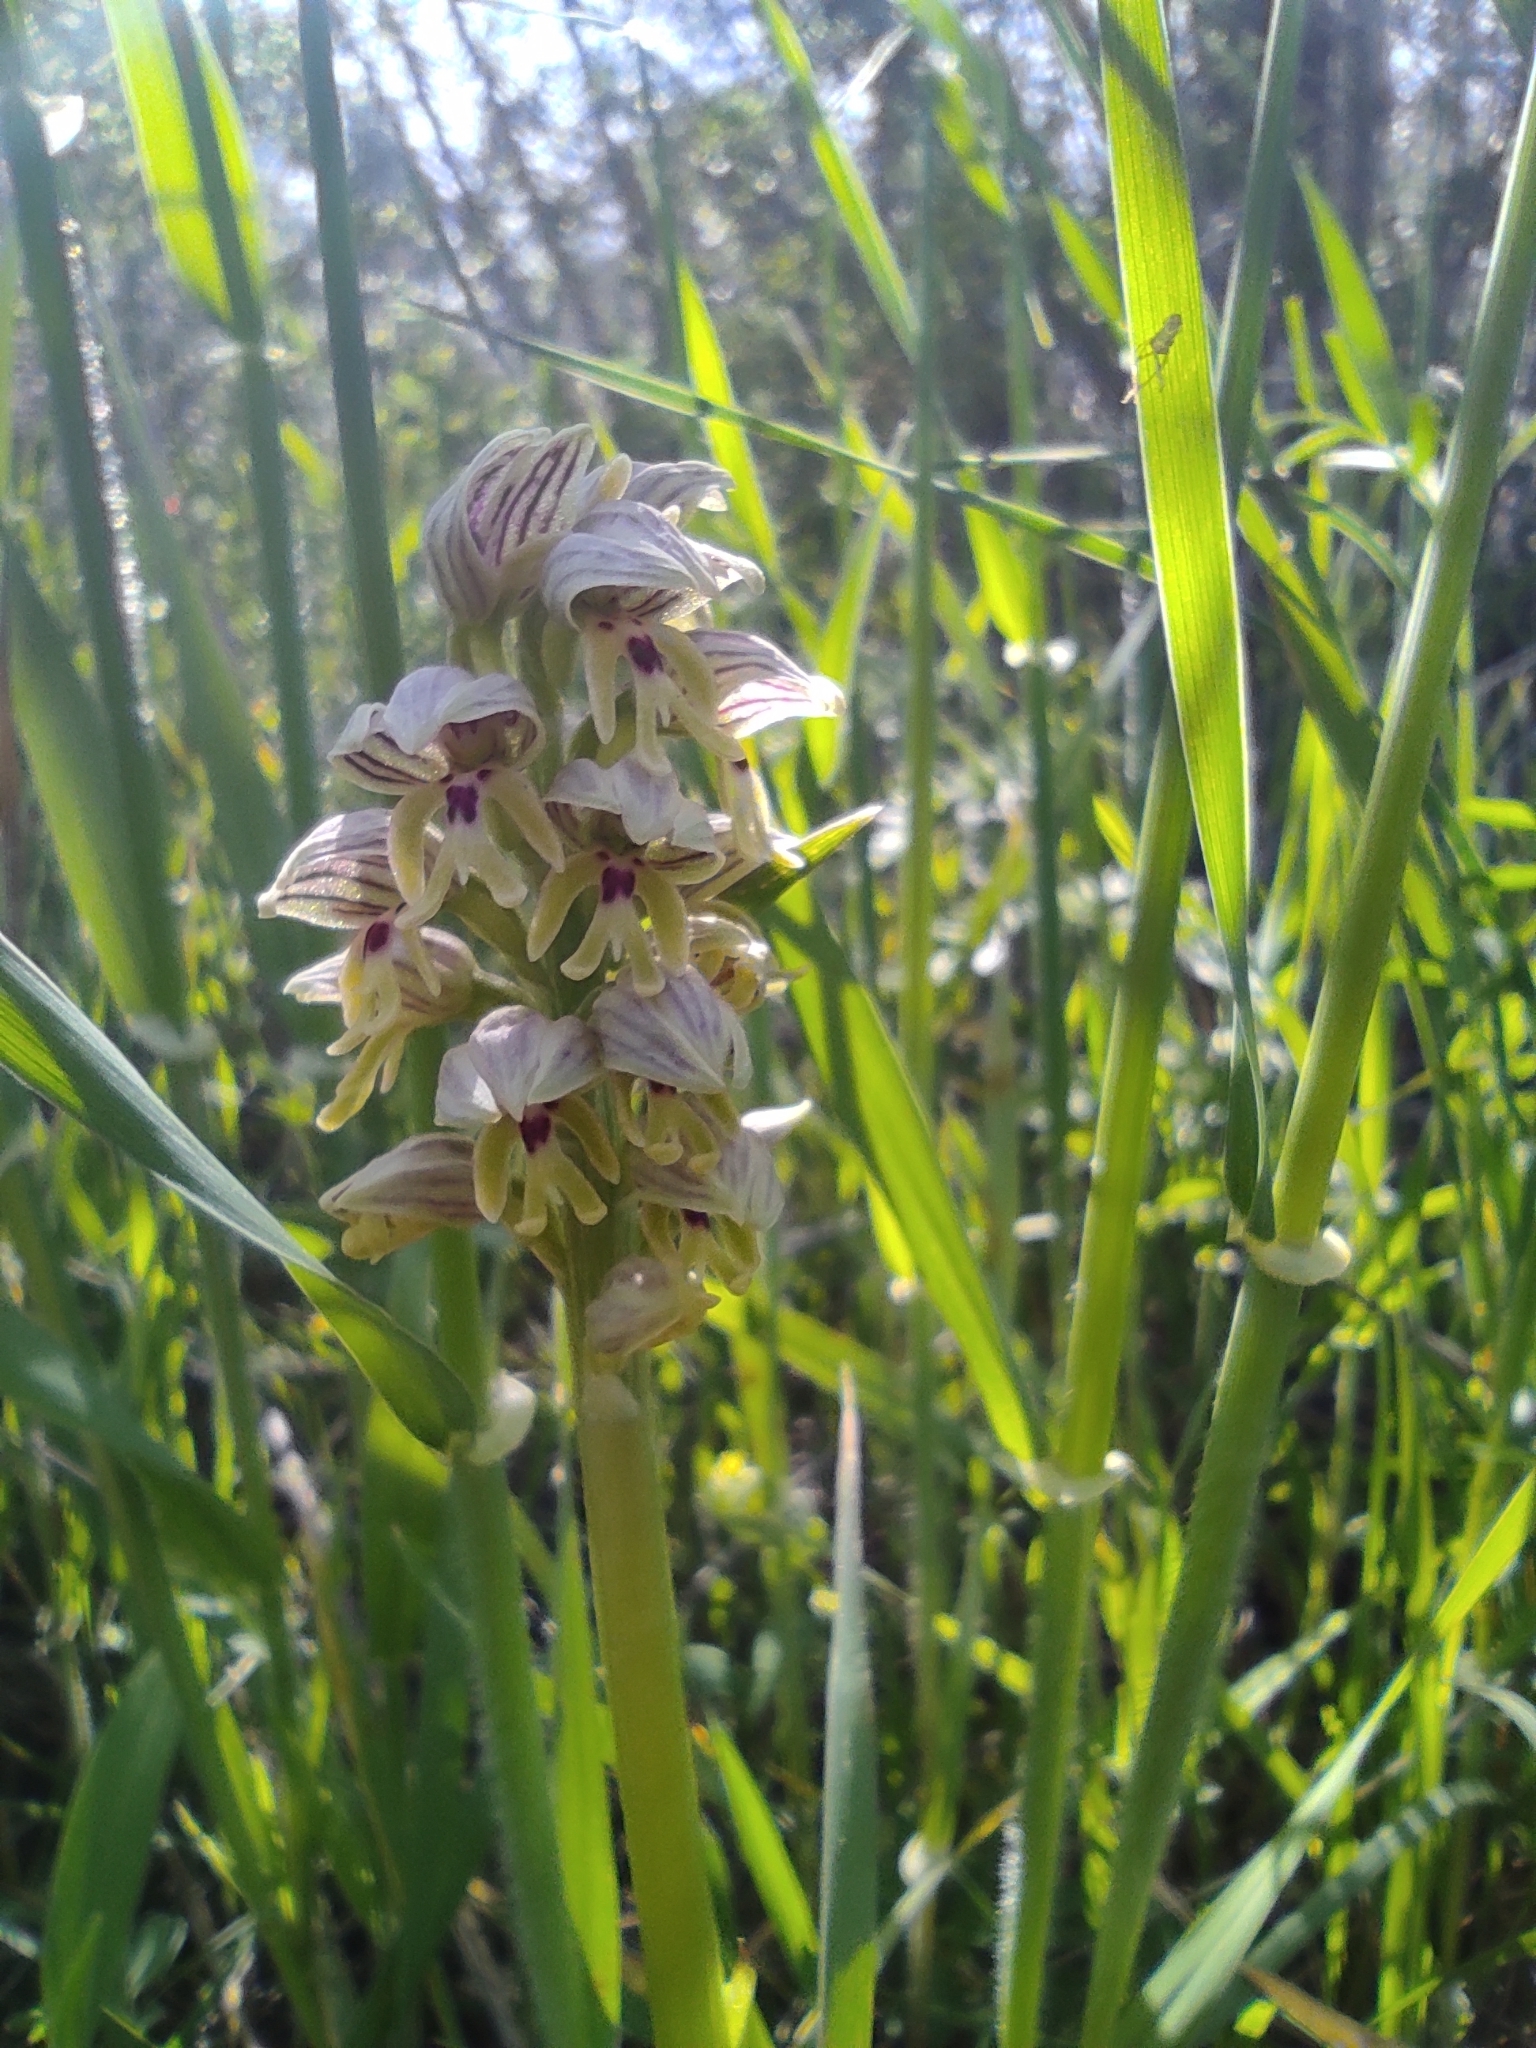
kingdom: Plantae
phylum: Tracheophyta
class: Liliopsida
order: Asparagales
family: Orchidaceae
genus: Orchis
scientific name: Orchis galilaea
